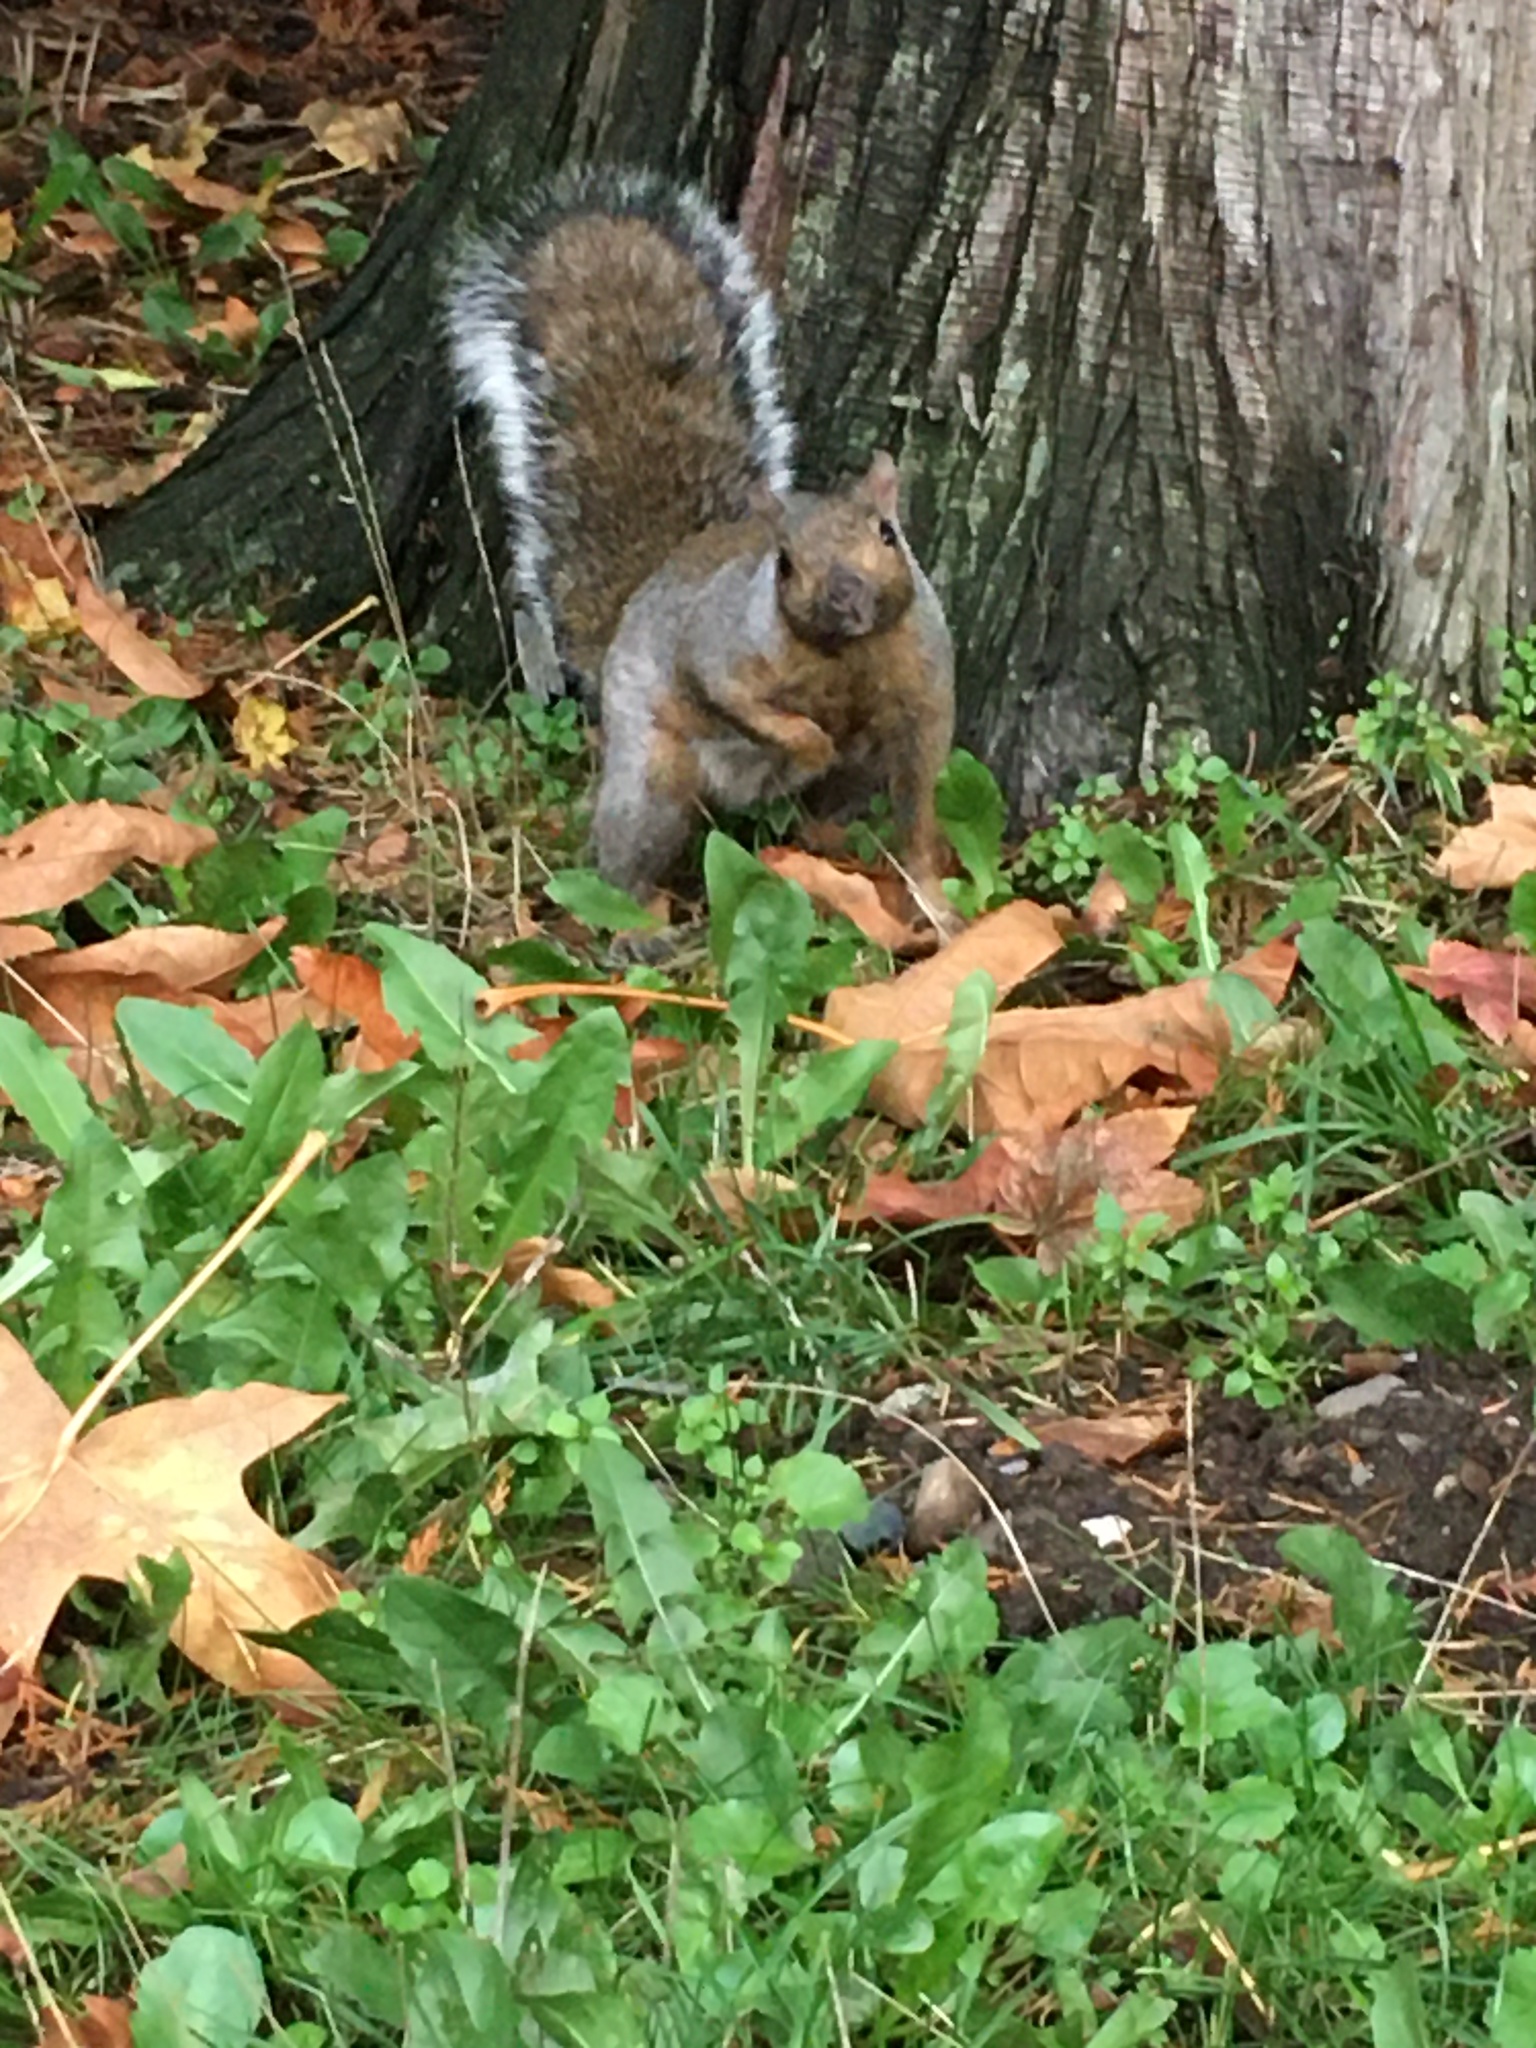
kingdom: Animalia
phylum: Chordata
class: Mammalia
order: Rodentia
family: Sciuridae
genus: Sciurus
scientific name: Sciurus carolinensis
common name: Eastern gray squirrel
